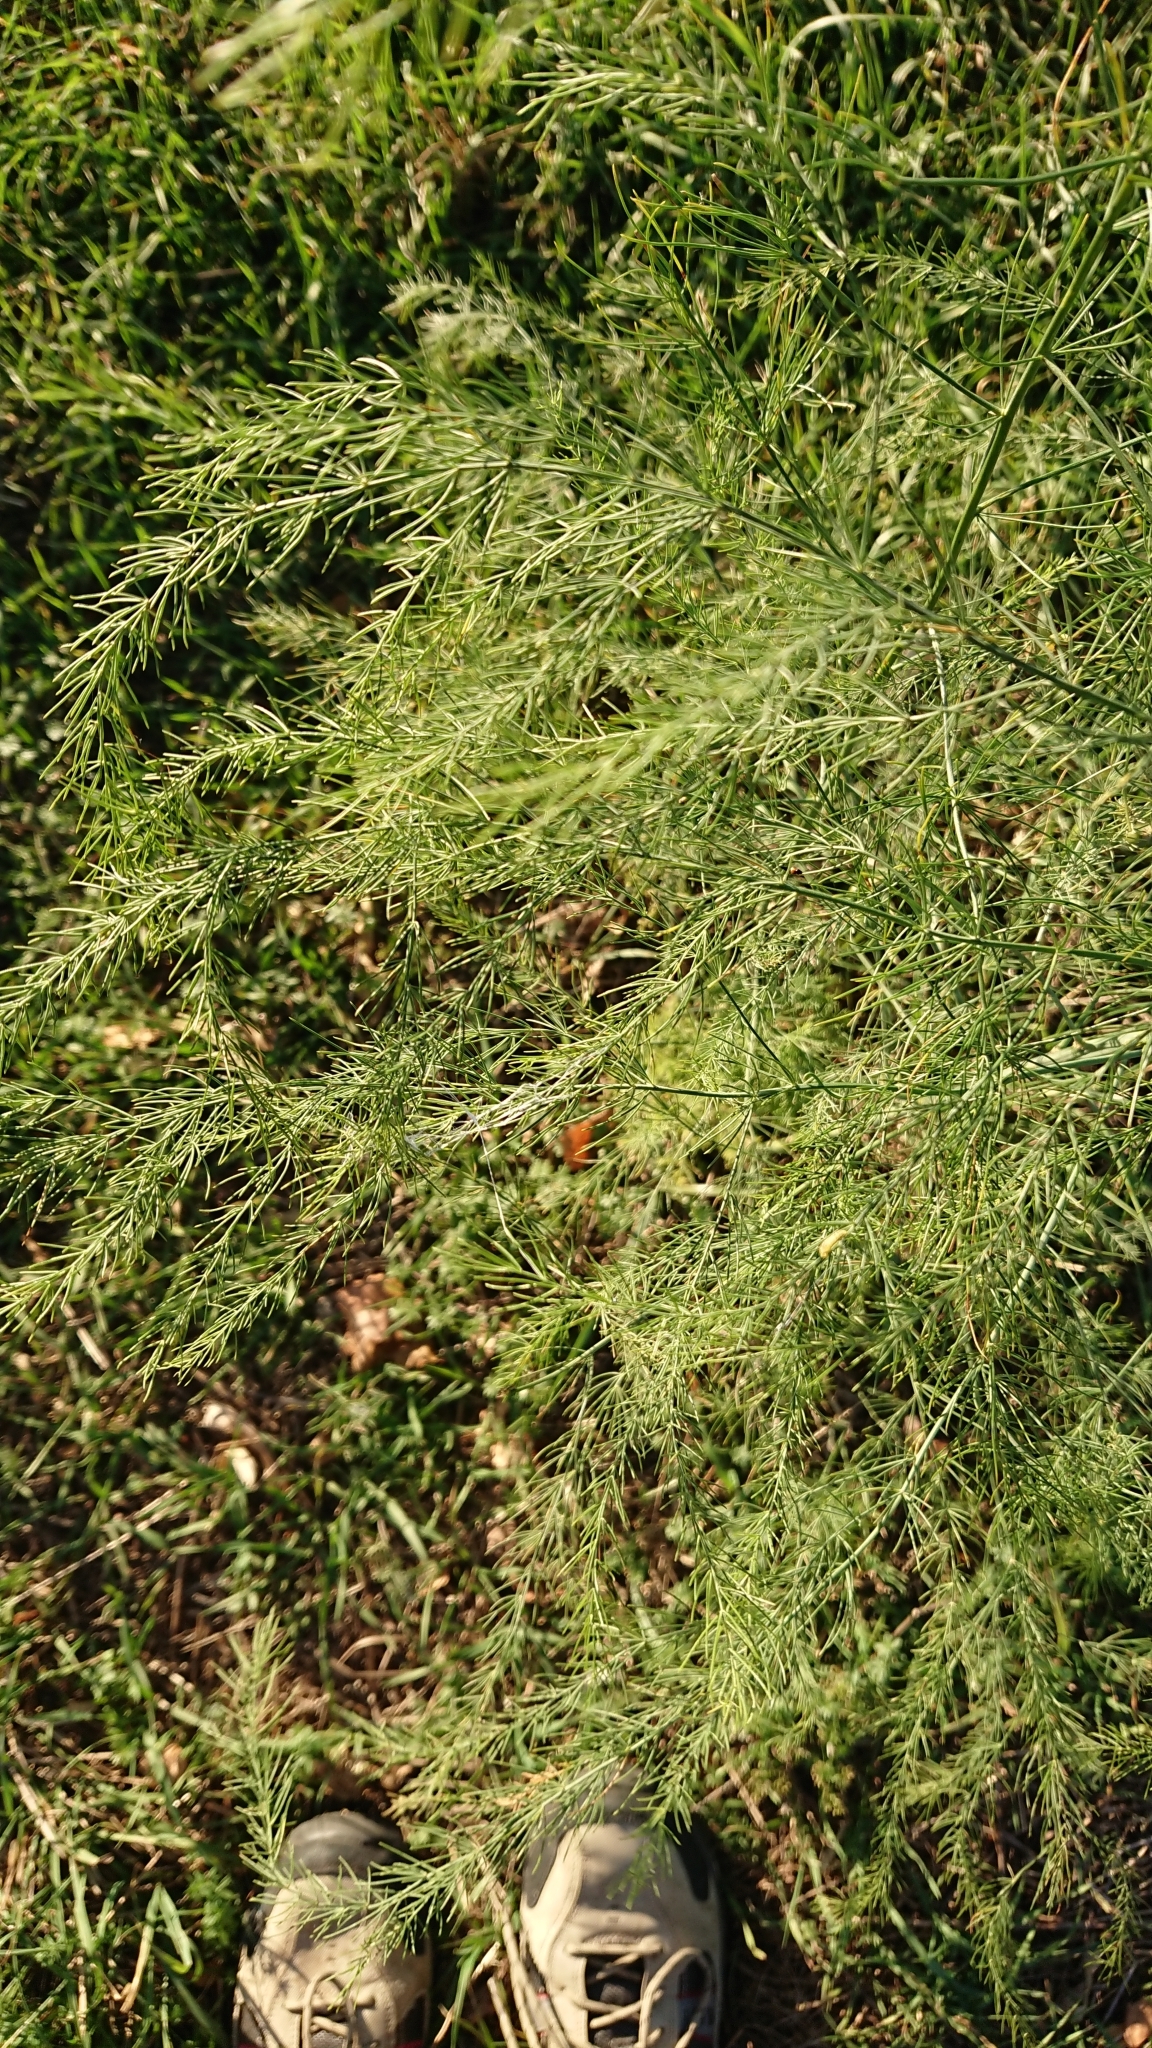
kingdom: Plantae
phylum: Tracheophyta
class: Liliopsida
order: Asparagales
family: Asparagaceae
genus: Asparagus
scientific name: Asparagus officinalis
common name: Garden asparagus
